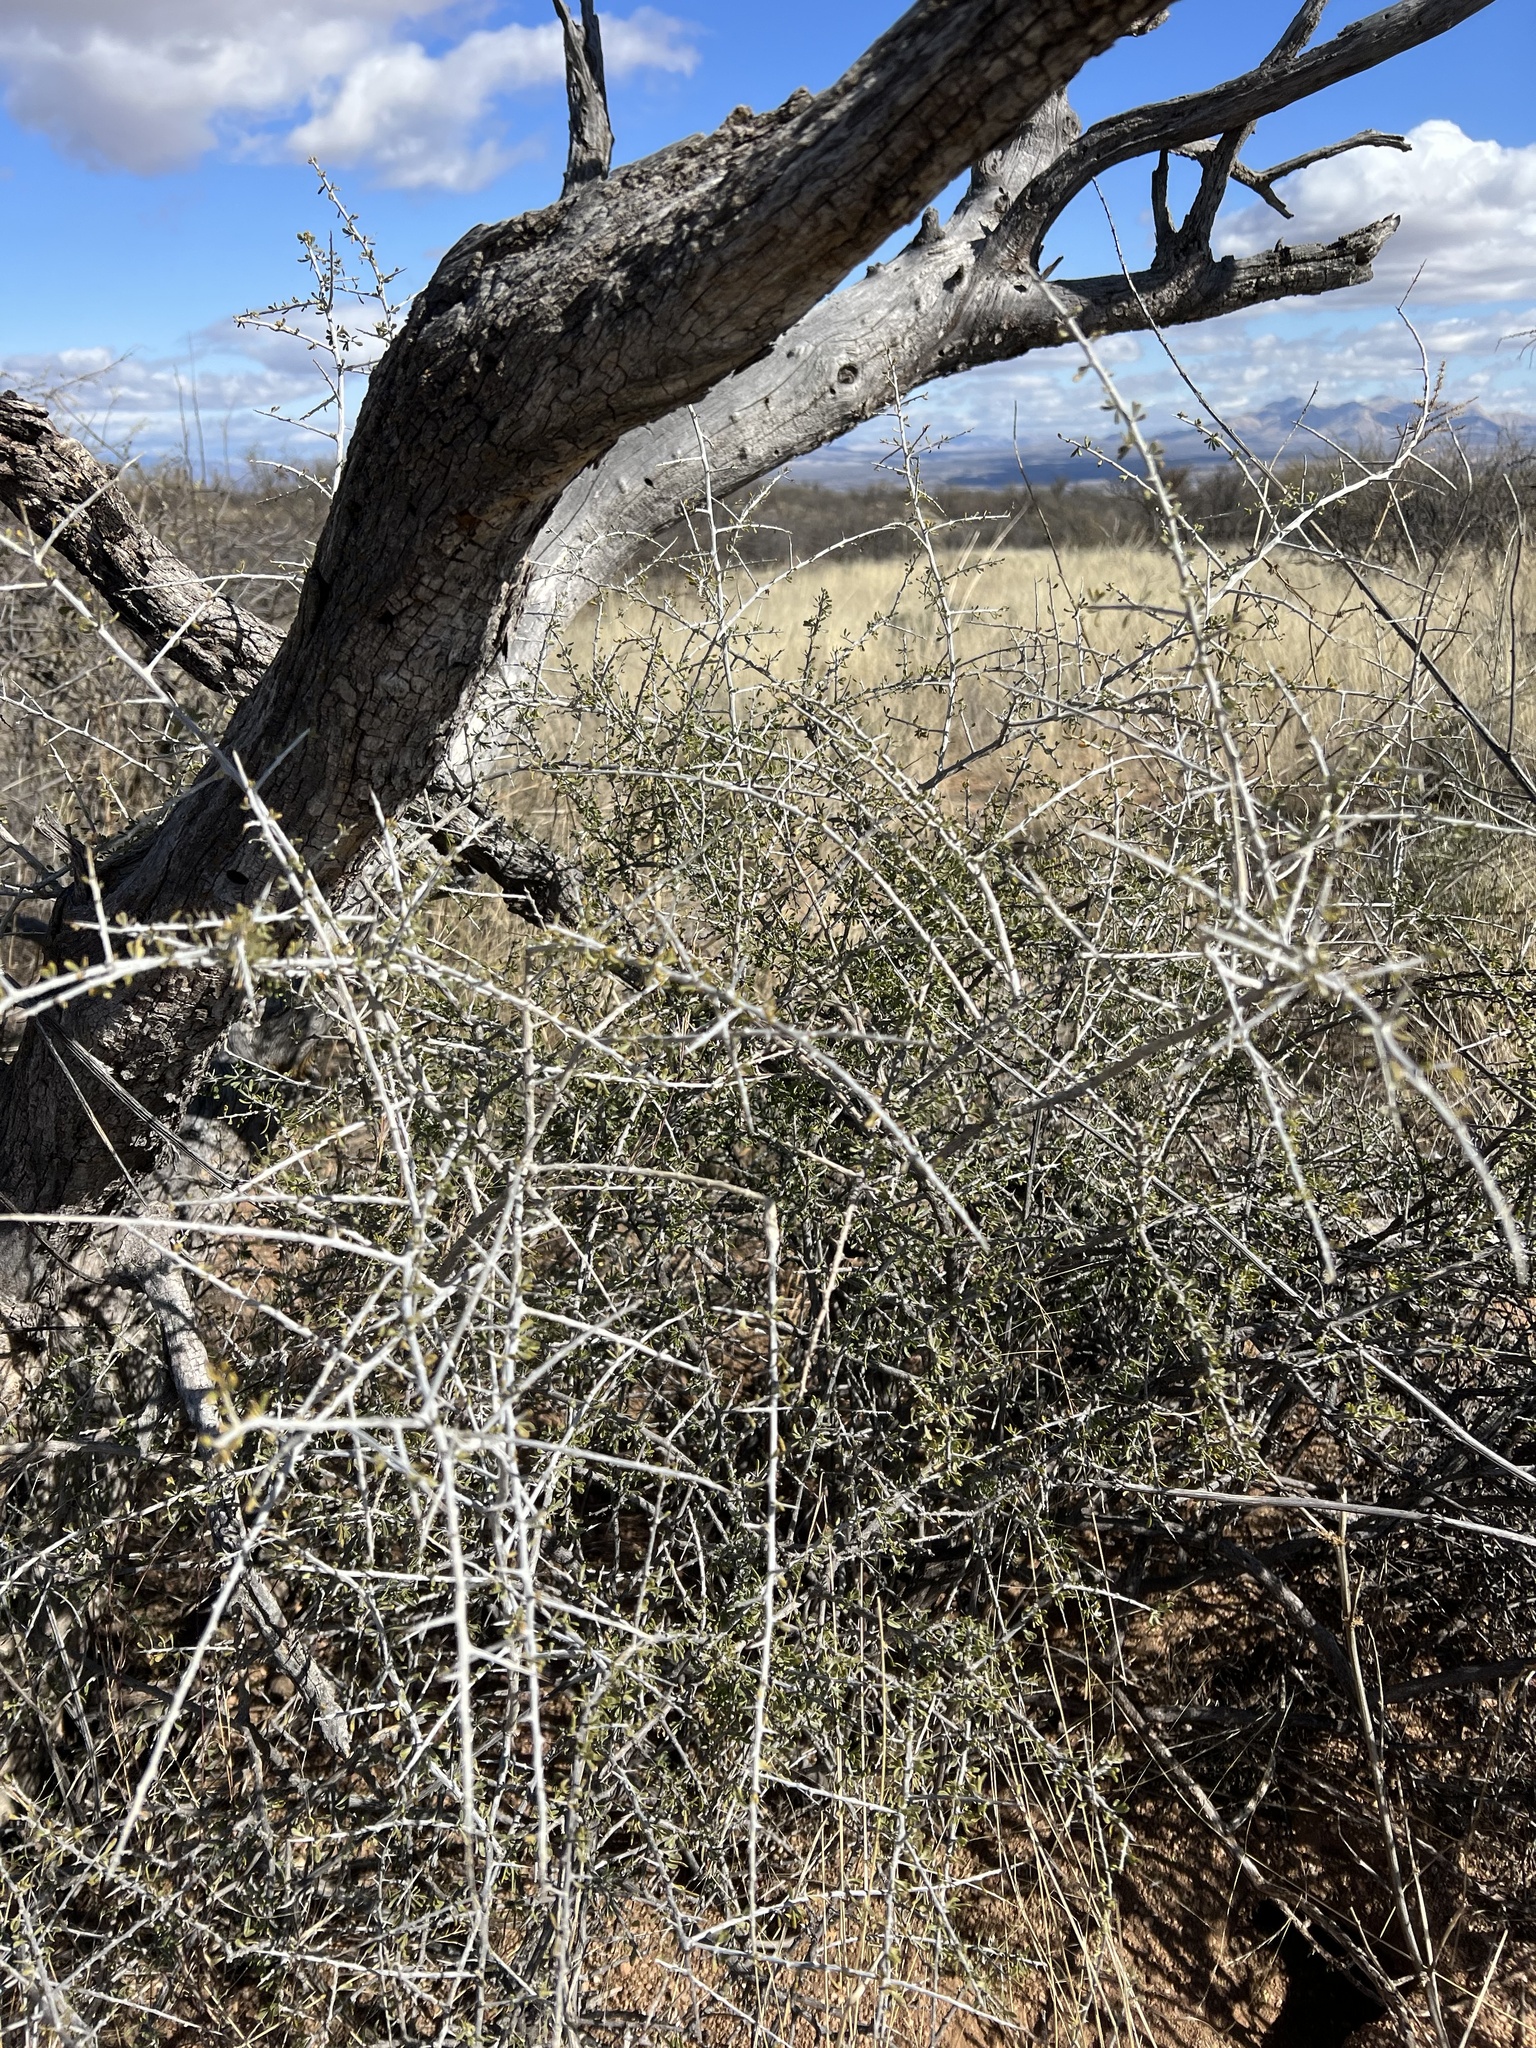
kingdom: Plantae
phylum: Tracheophyta
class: Magnoliopsida
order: Solanales
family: Solanaceae
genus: Lycium
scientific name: Lycium andersonii
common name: Water-jacket
